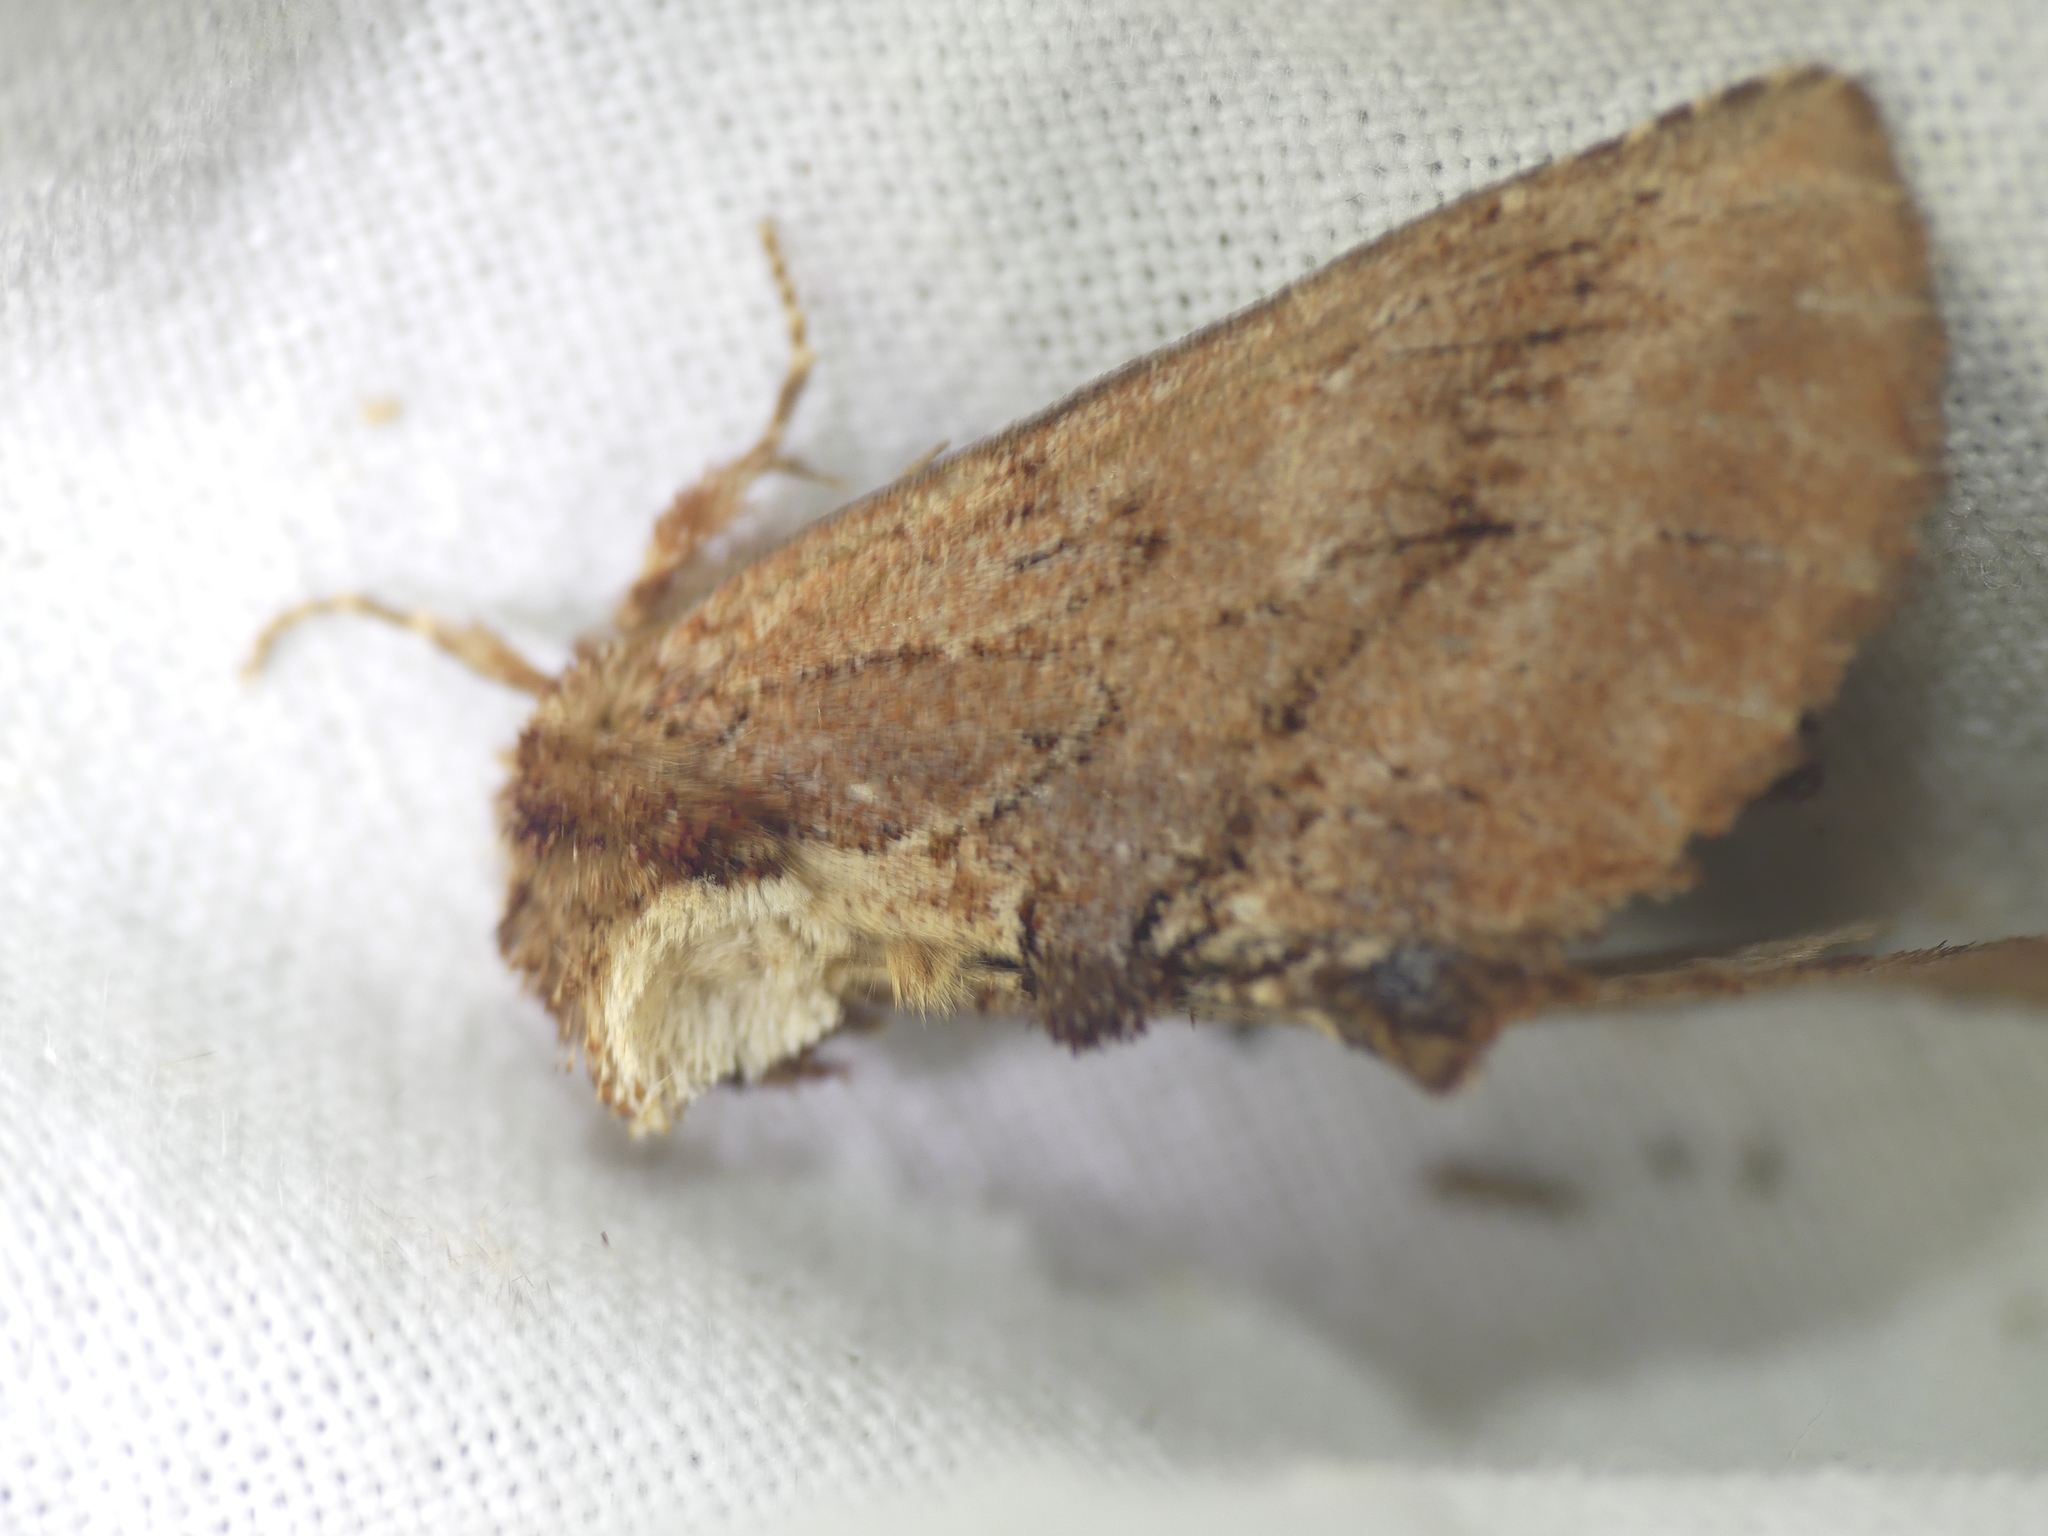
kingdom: Animalia
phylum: Arthropoda
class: Insecta
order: Lepidoptera
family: Notodontidae
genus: Ptilodon
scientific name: Ptilodon capucina
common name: Coxcomb prominent
